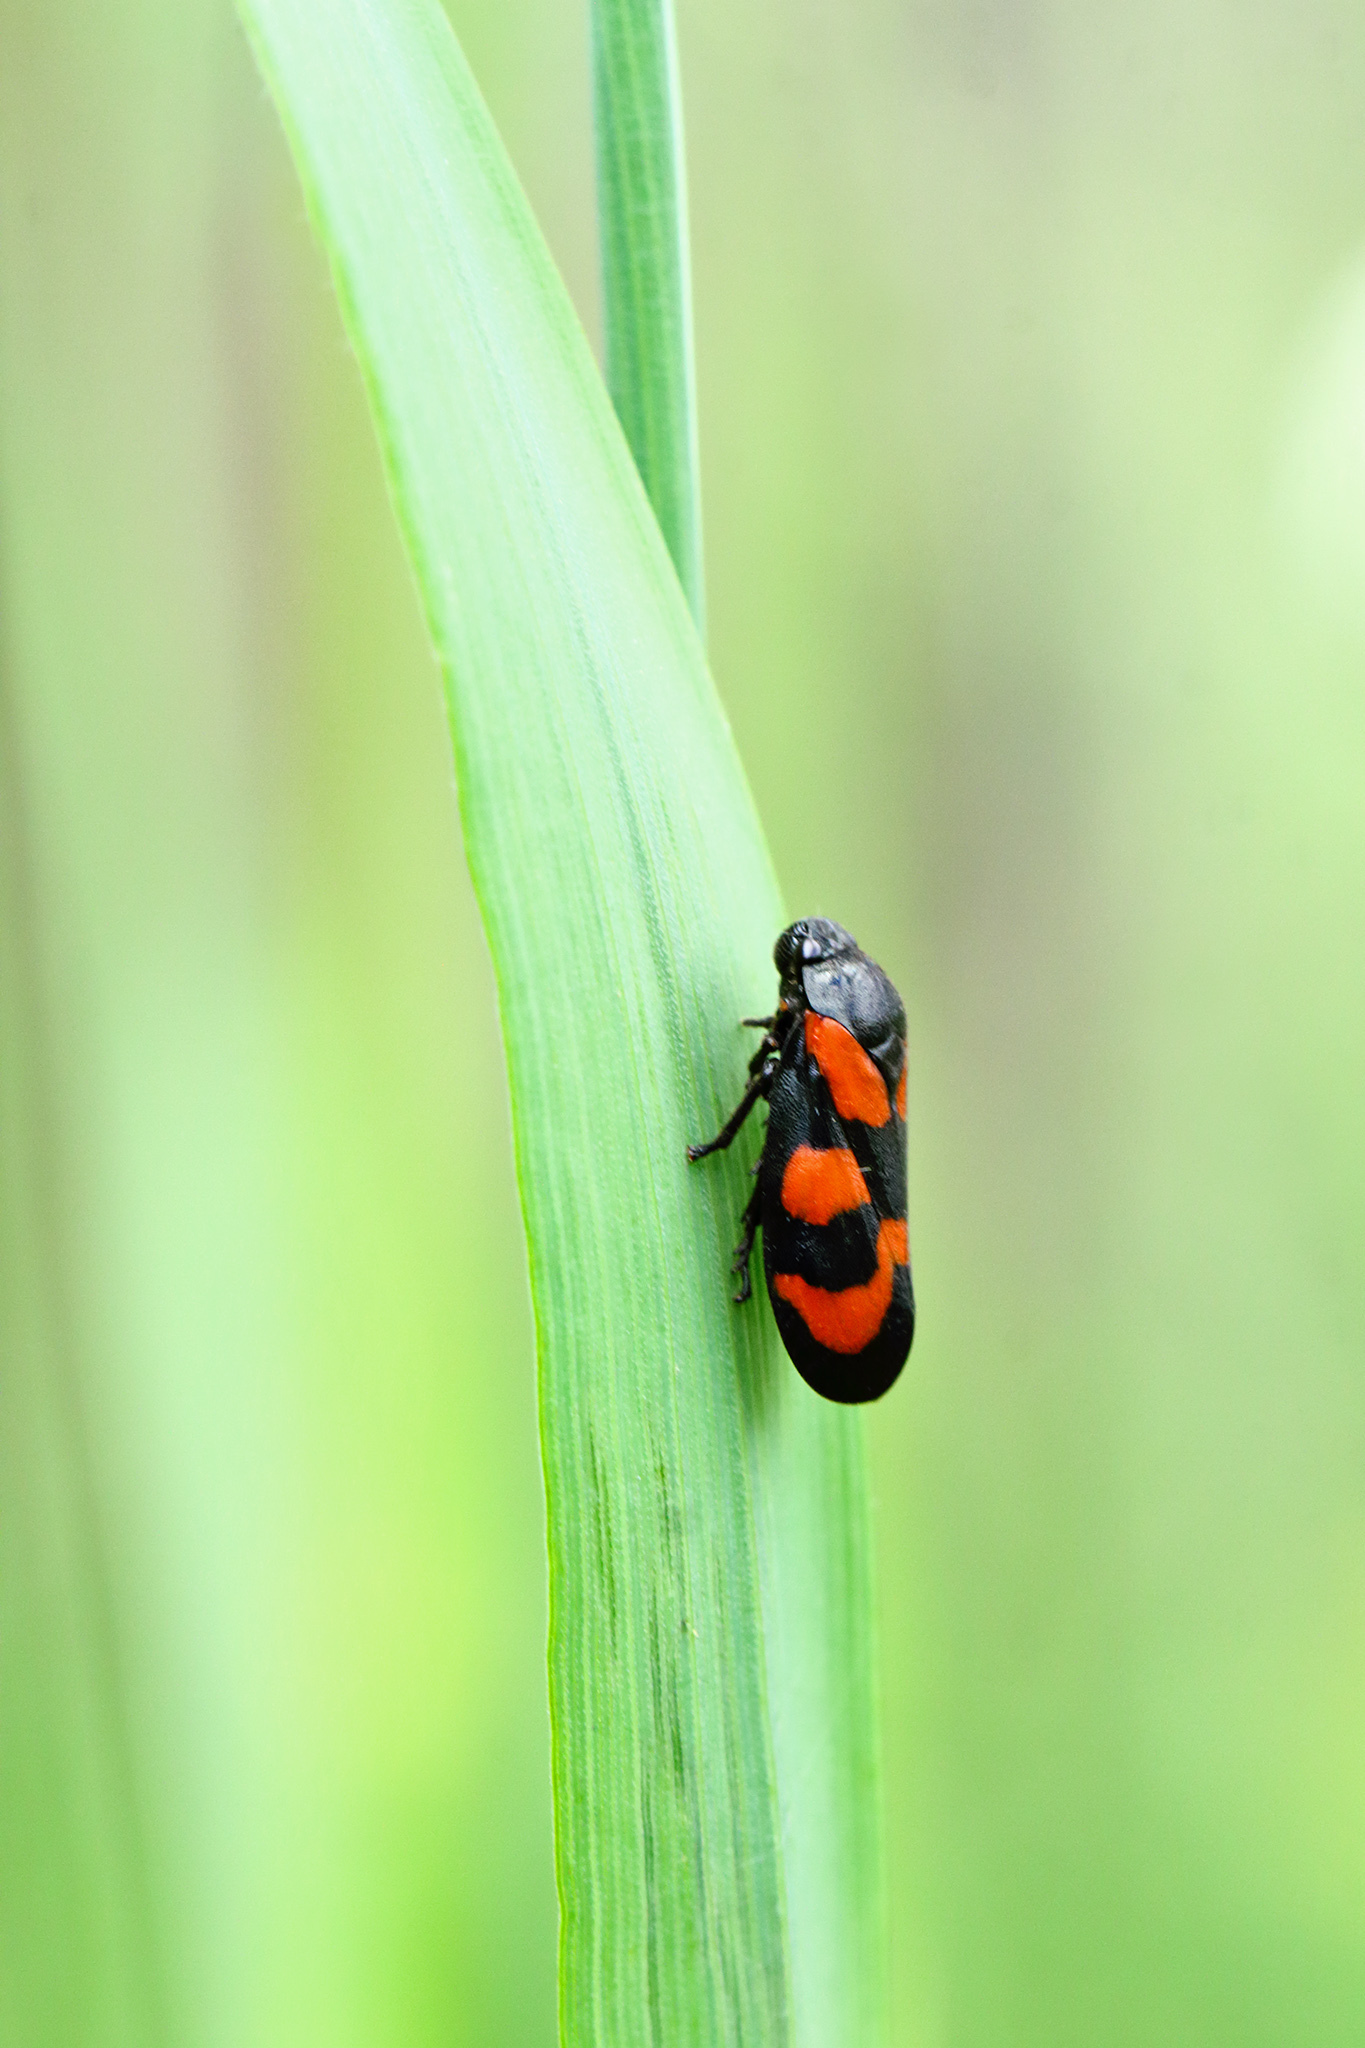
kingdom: Animalia
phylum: Arthropoda
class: Insecta
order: Hemiptera
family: Cercopidae
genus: Cercopis
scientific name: Cercopis vulnerata
